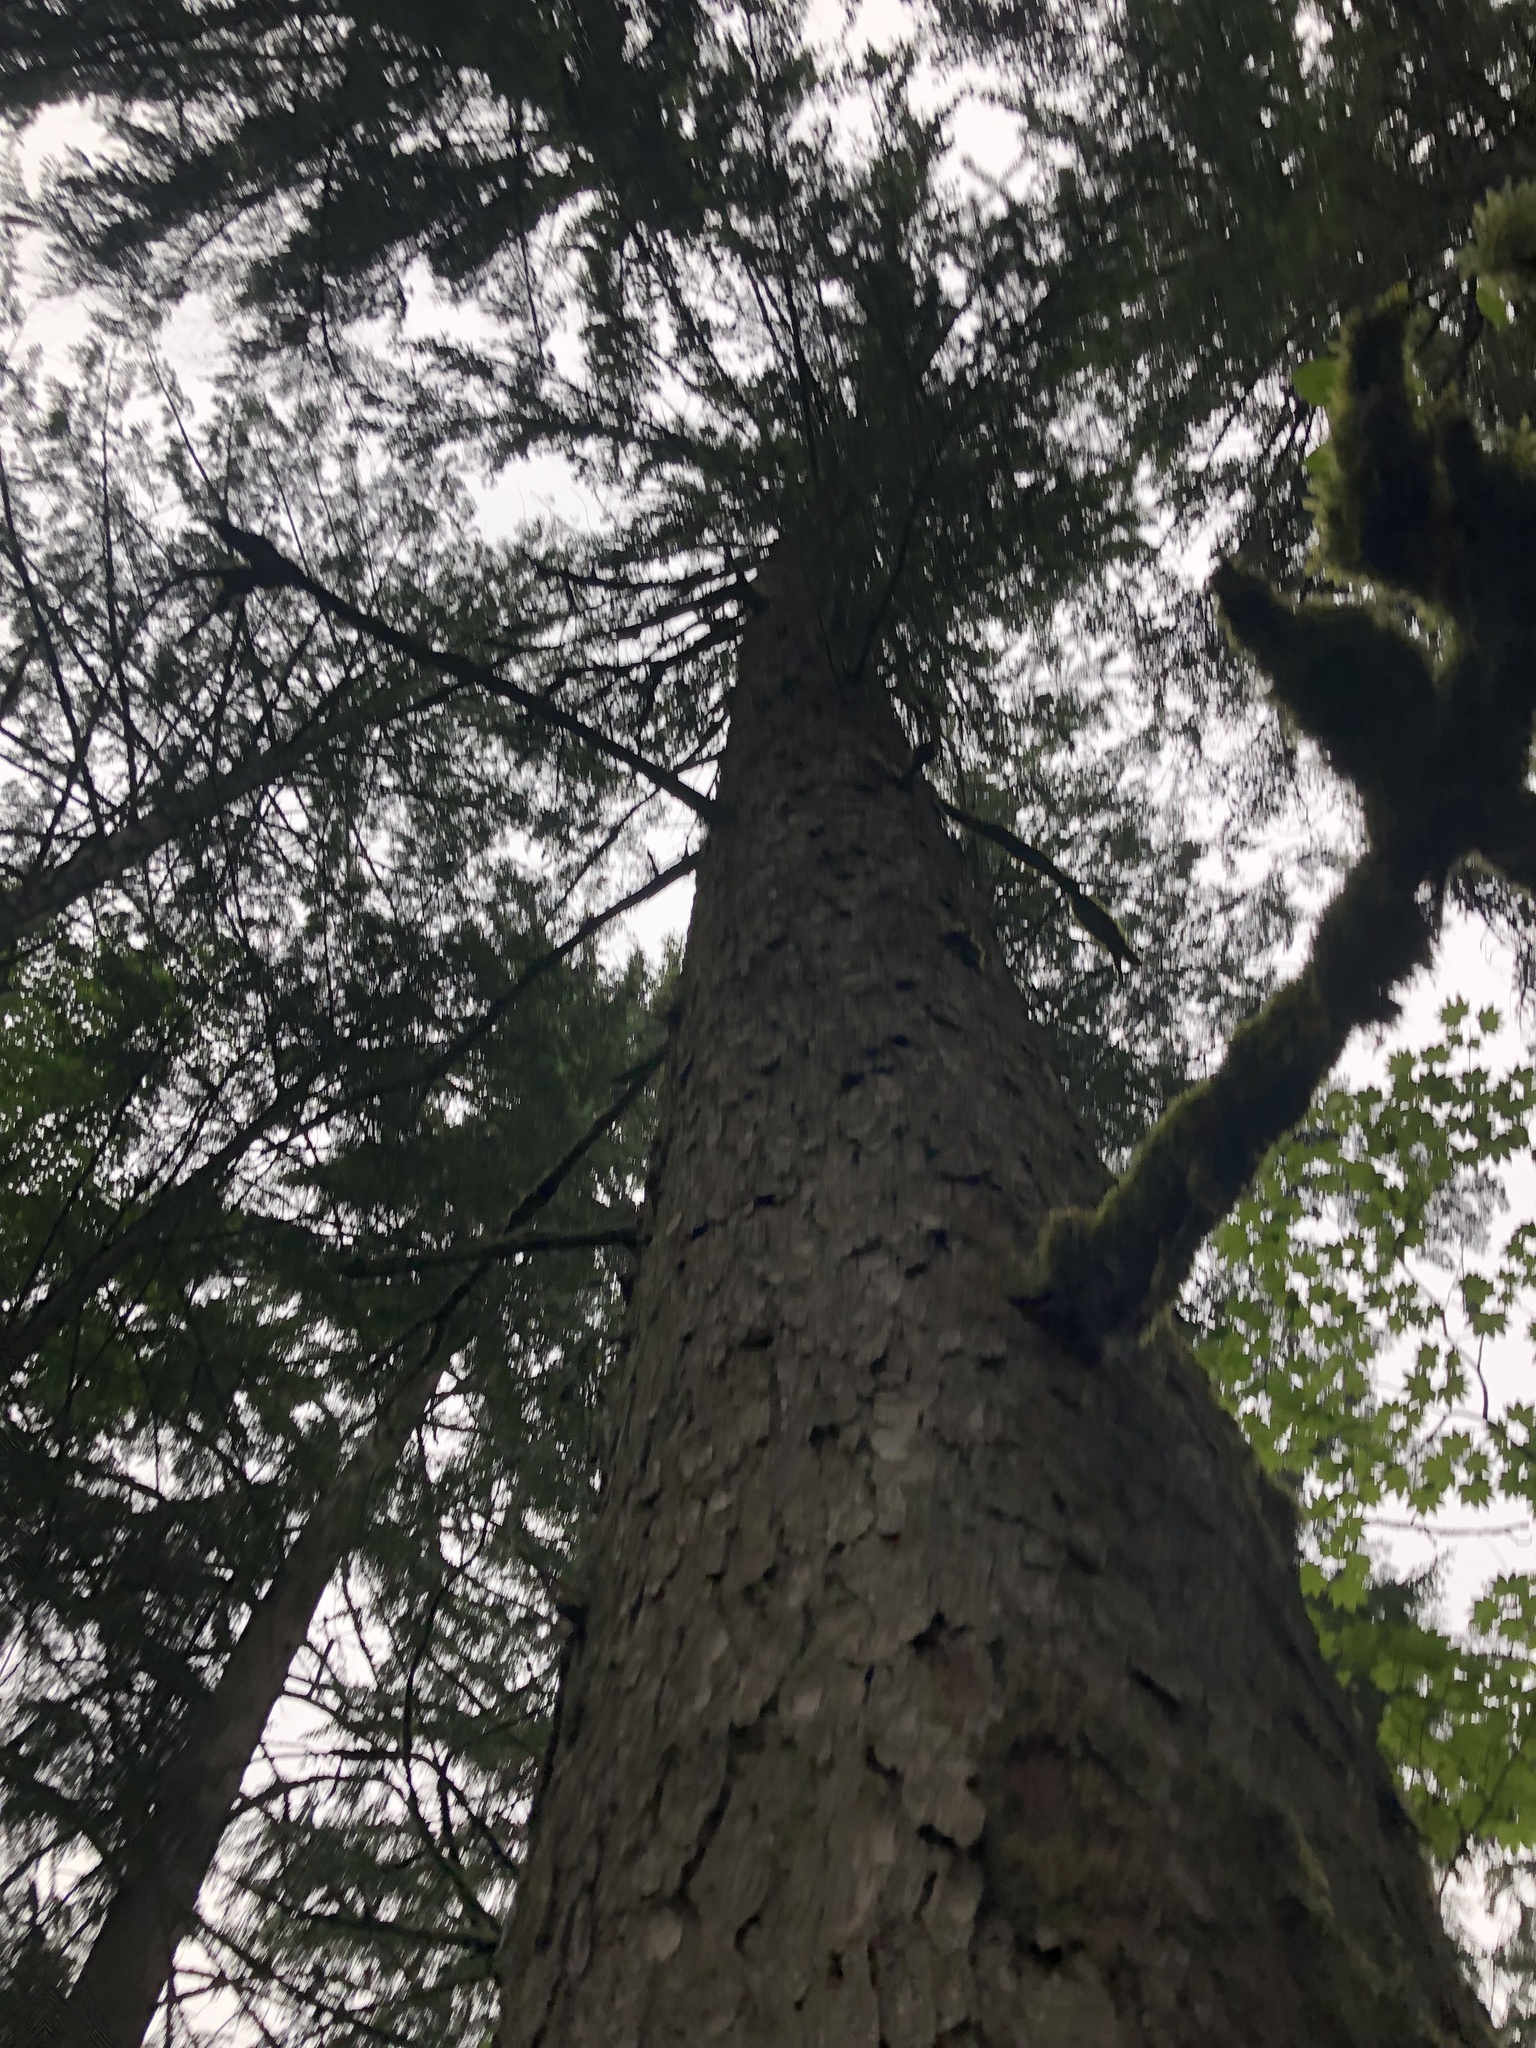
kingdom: Plantae
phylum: Tracheophyta
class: Pinopsida
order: Pinales
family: Pinaceae
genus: Picea
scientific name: Picea sitchensis
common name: Sitka spruce
